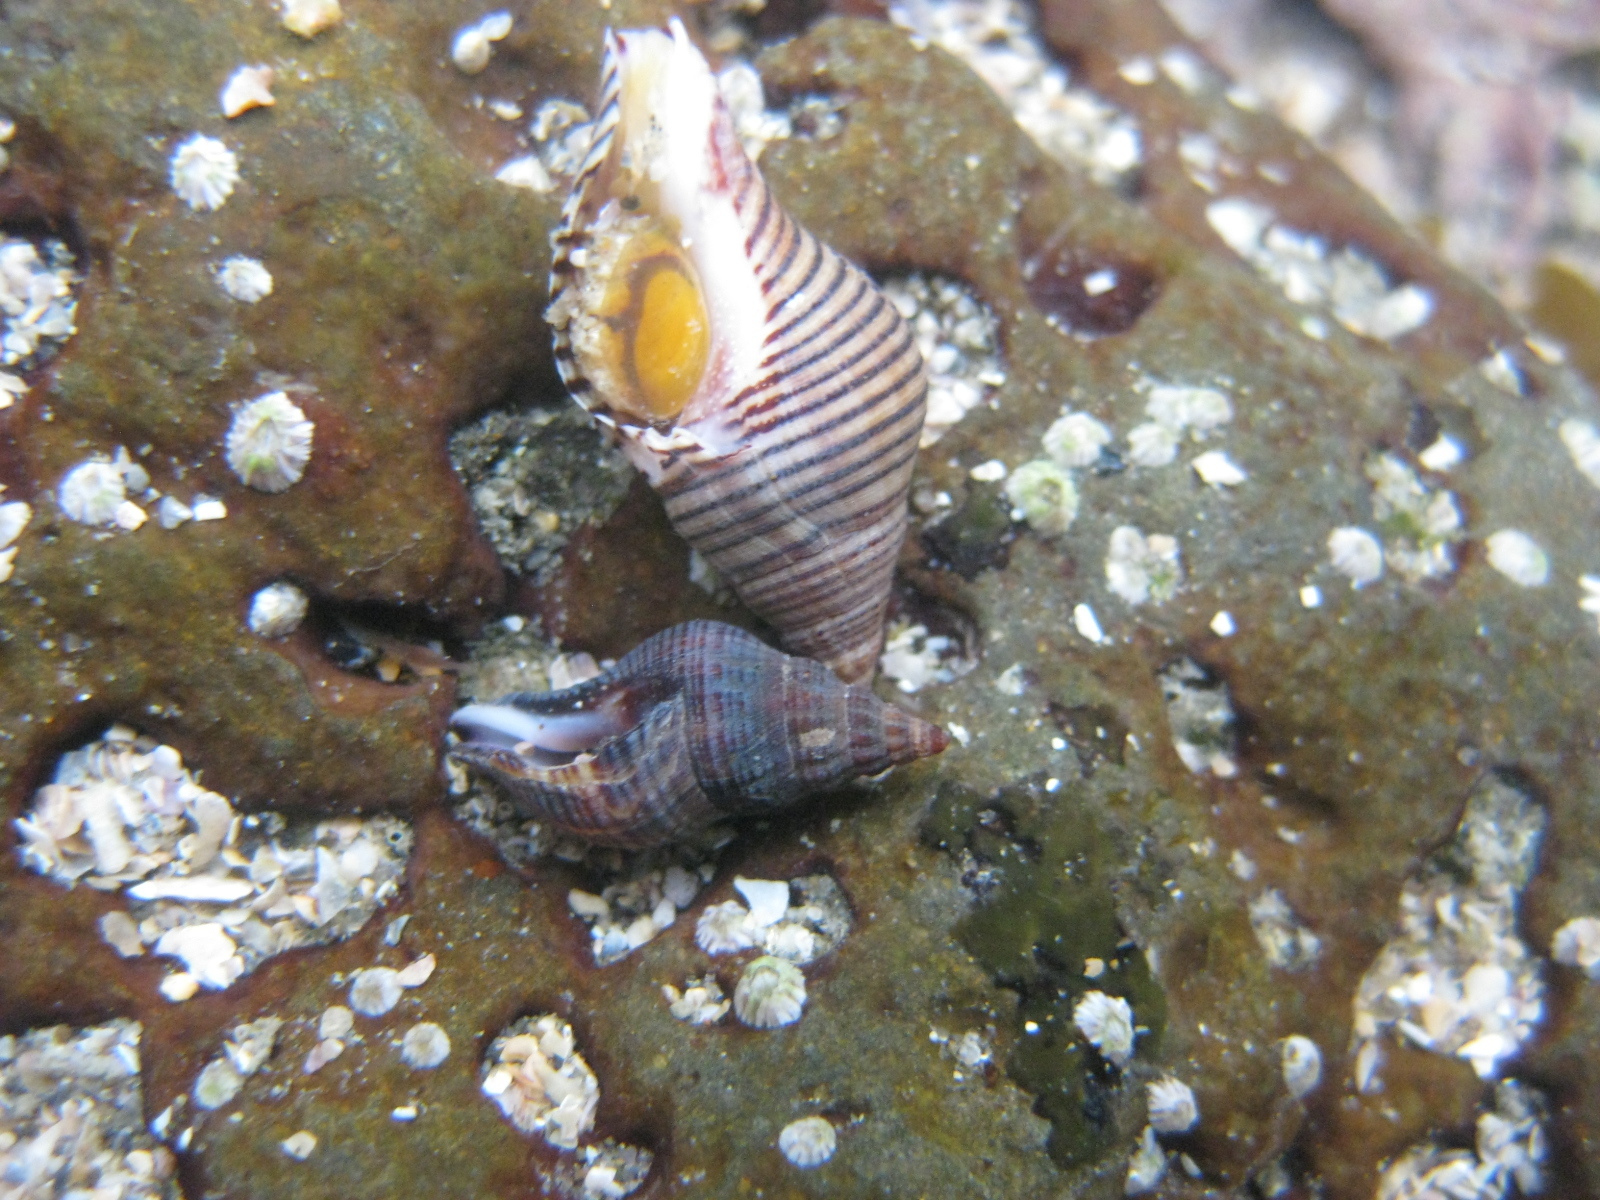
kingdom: Animalia
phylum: Mollusca
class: Gastropoda
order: Neogastropoda
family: Tudiclidae
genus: Buccinulum
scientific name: Buccinulum vittatum
